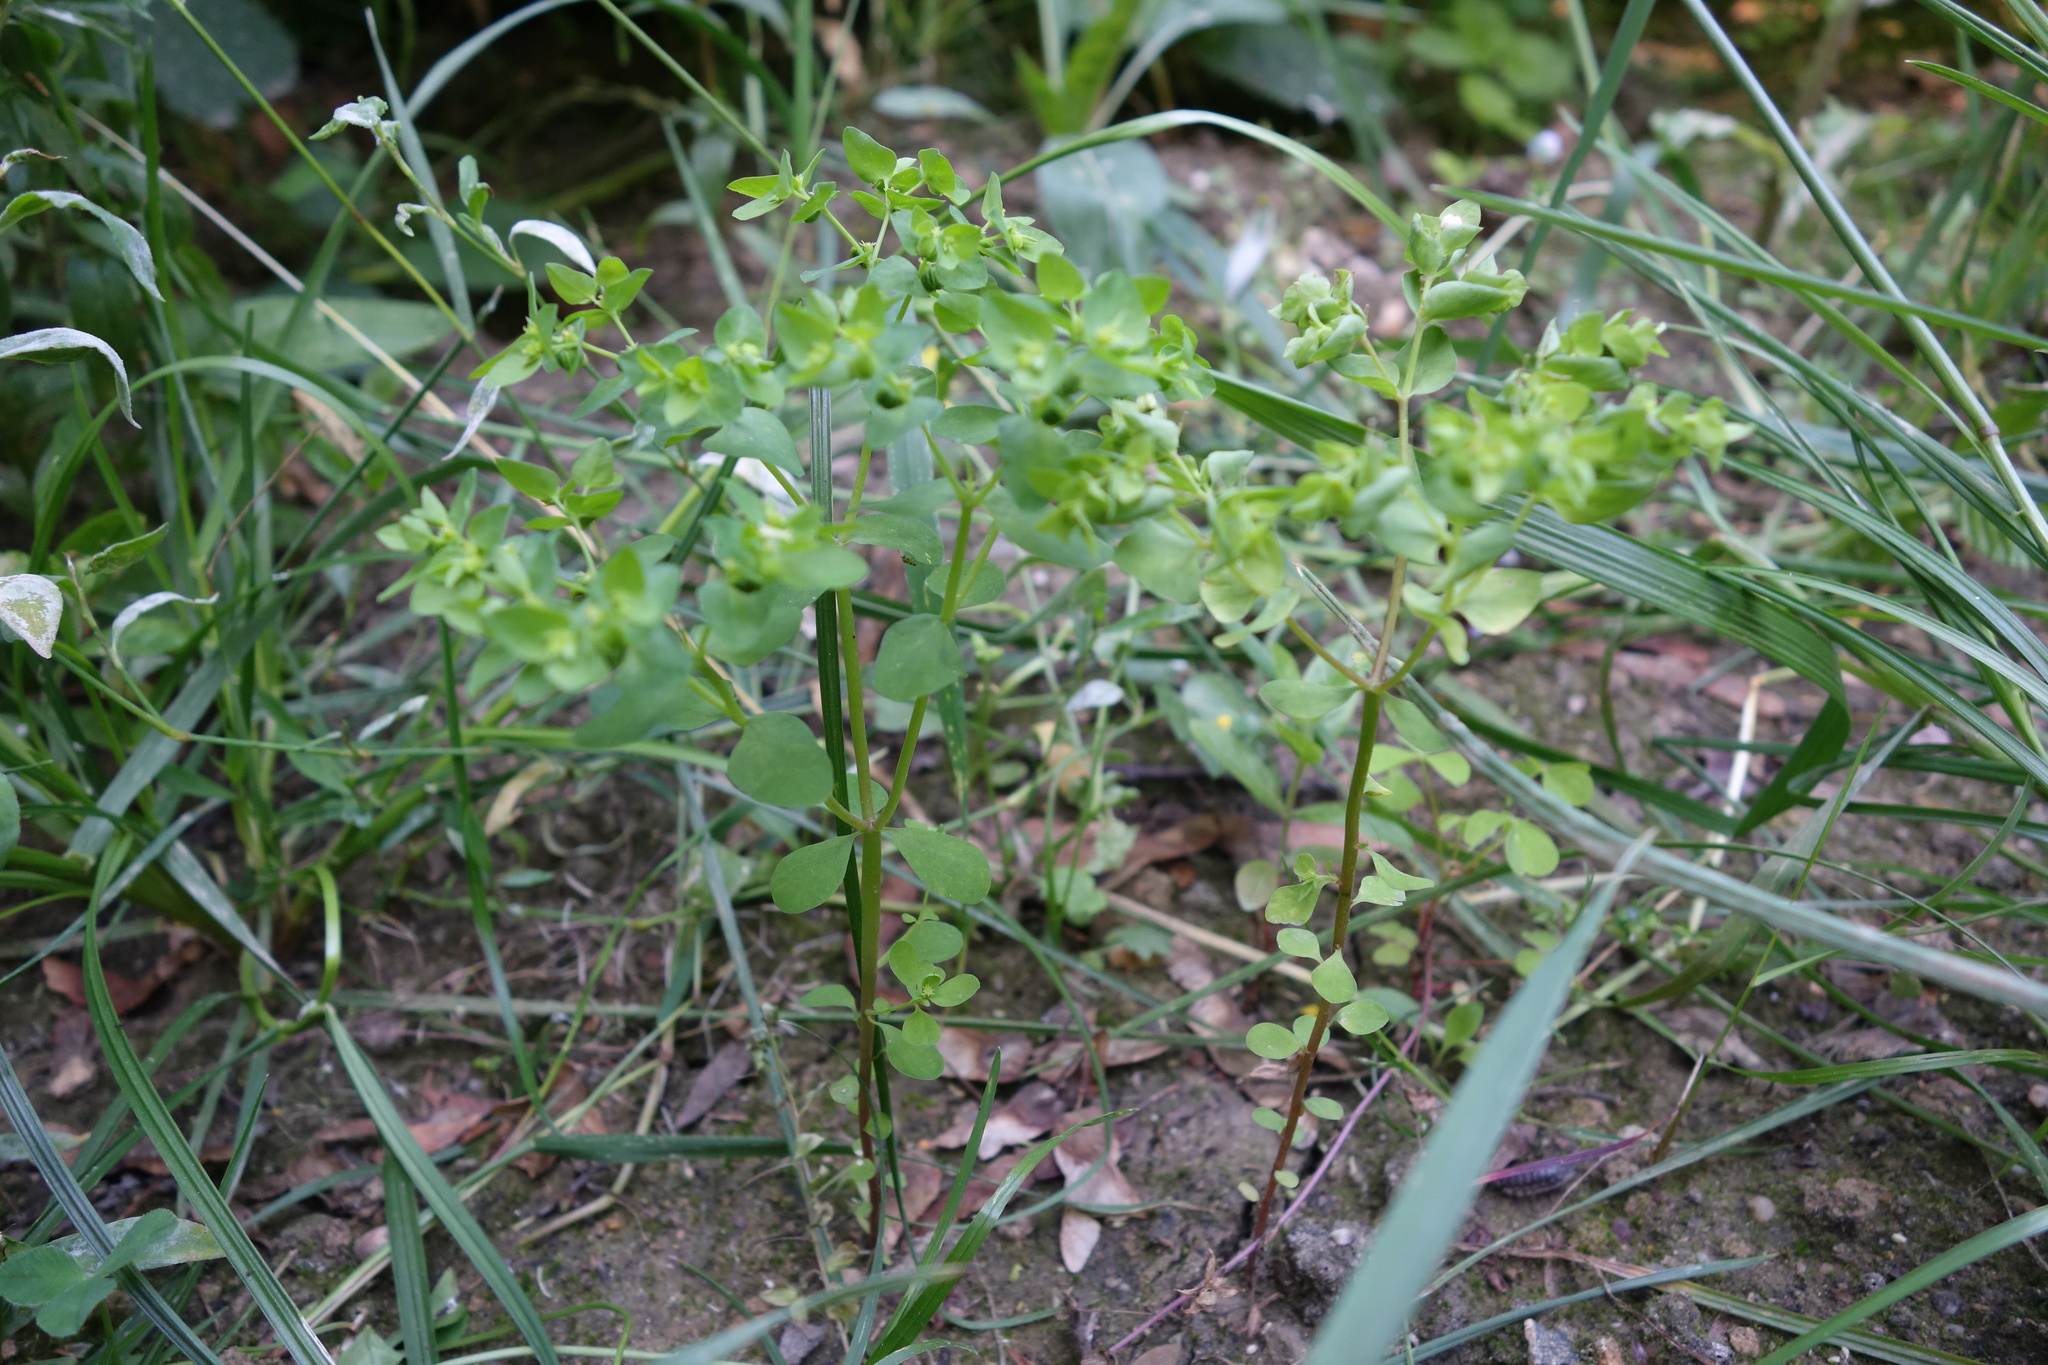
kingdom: Plantae
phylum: Tracheophyta
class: Magnoliopsida
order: Malpighiales
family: Euphorbiaceae
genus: Euphorbia
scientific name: Euphorbia peplus
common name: Petty spurge
